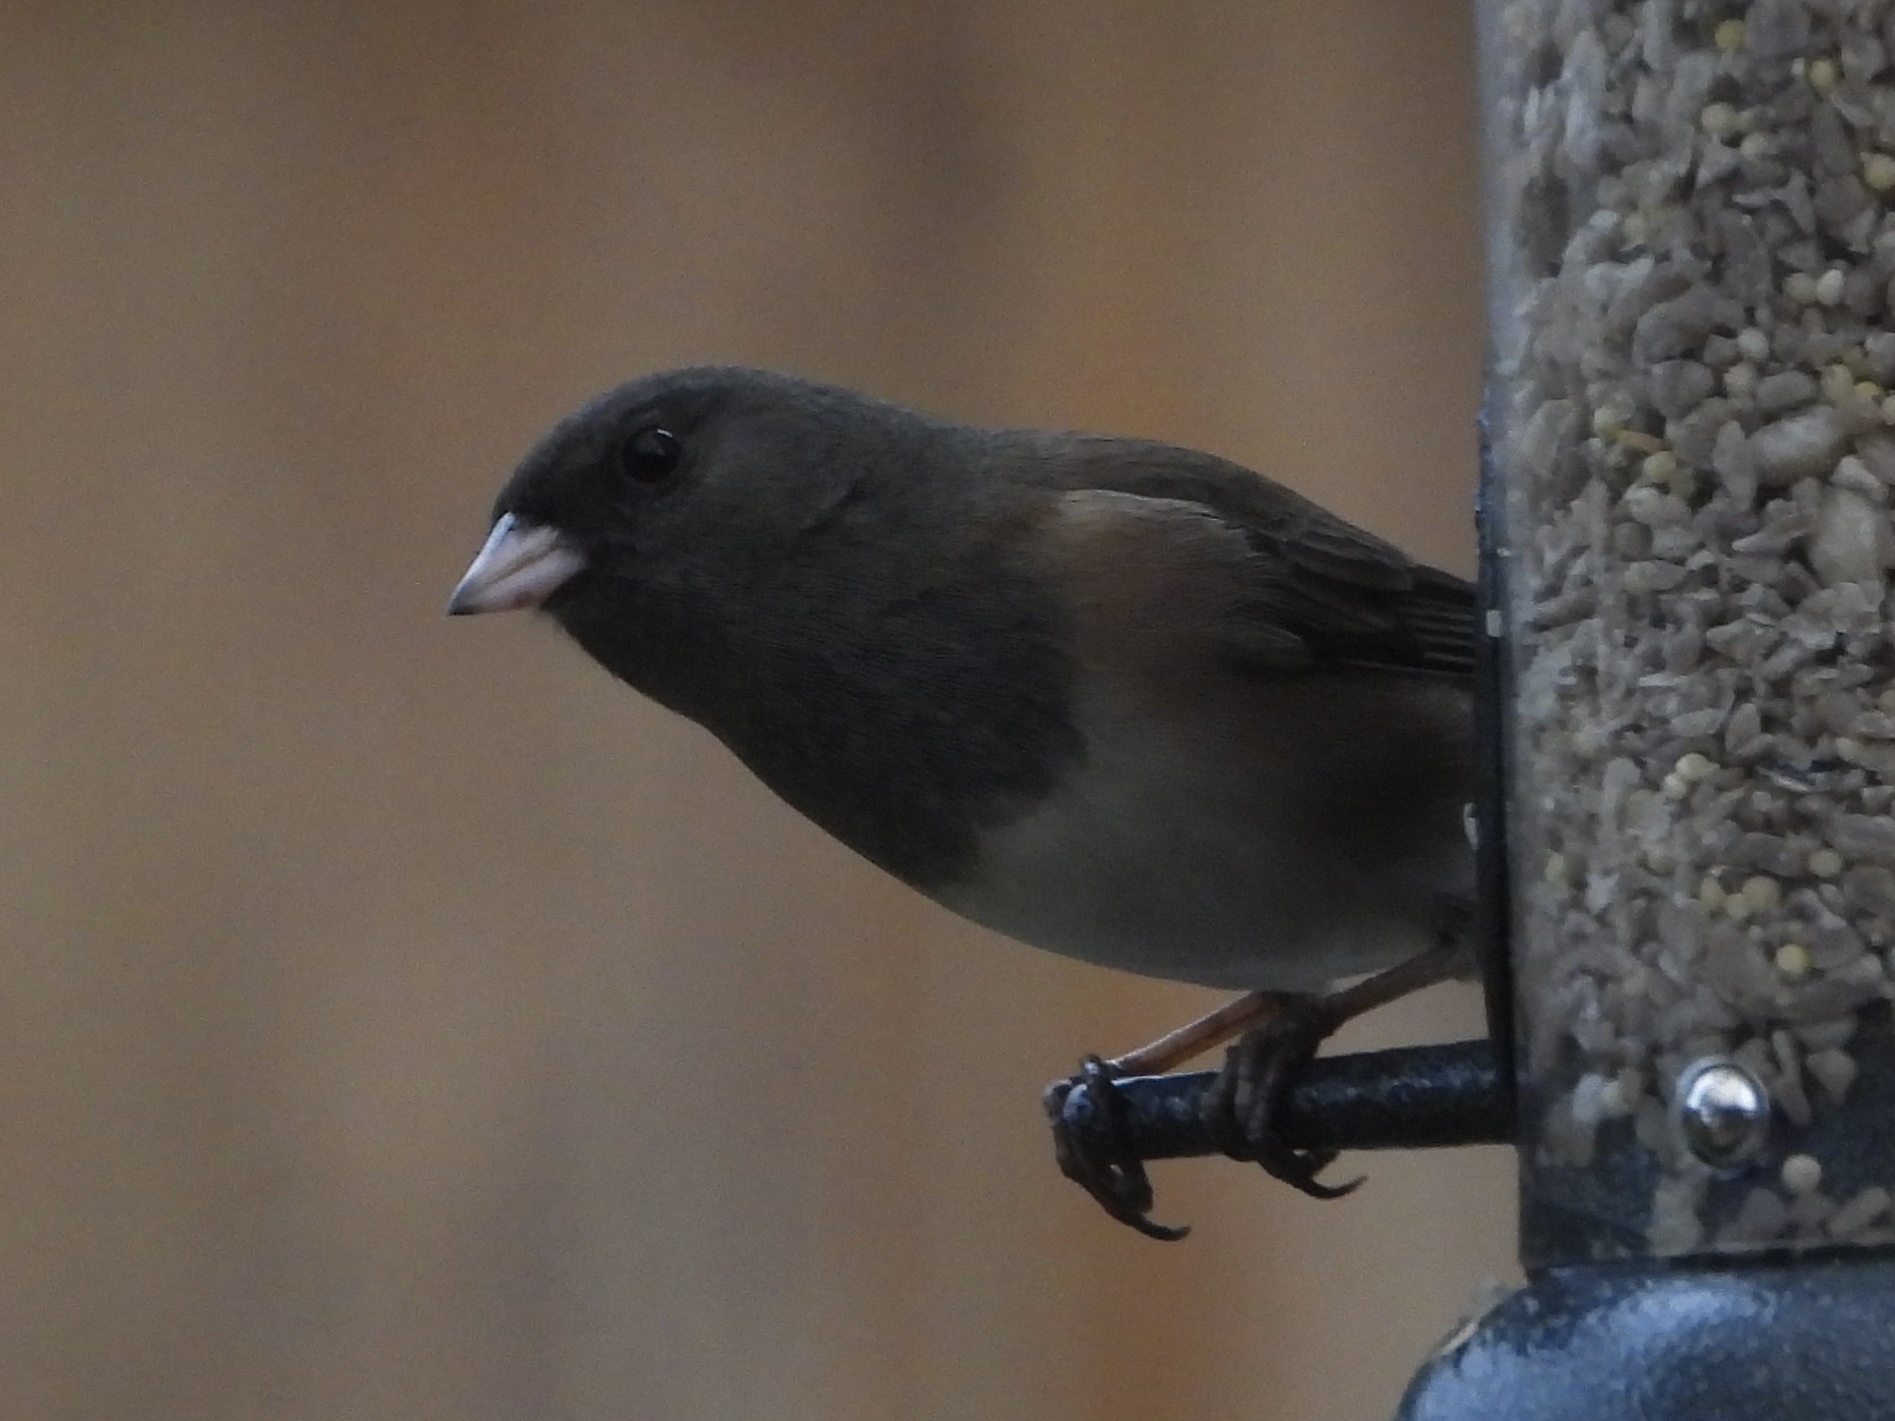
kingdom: Animalia
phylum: Chordata
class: Aves
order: Passeriformes
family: Passerellidae
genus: Junco
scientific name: Junco hyemalis
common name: Dark-eyed junco
